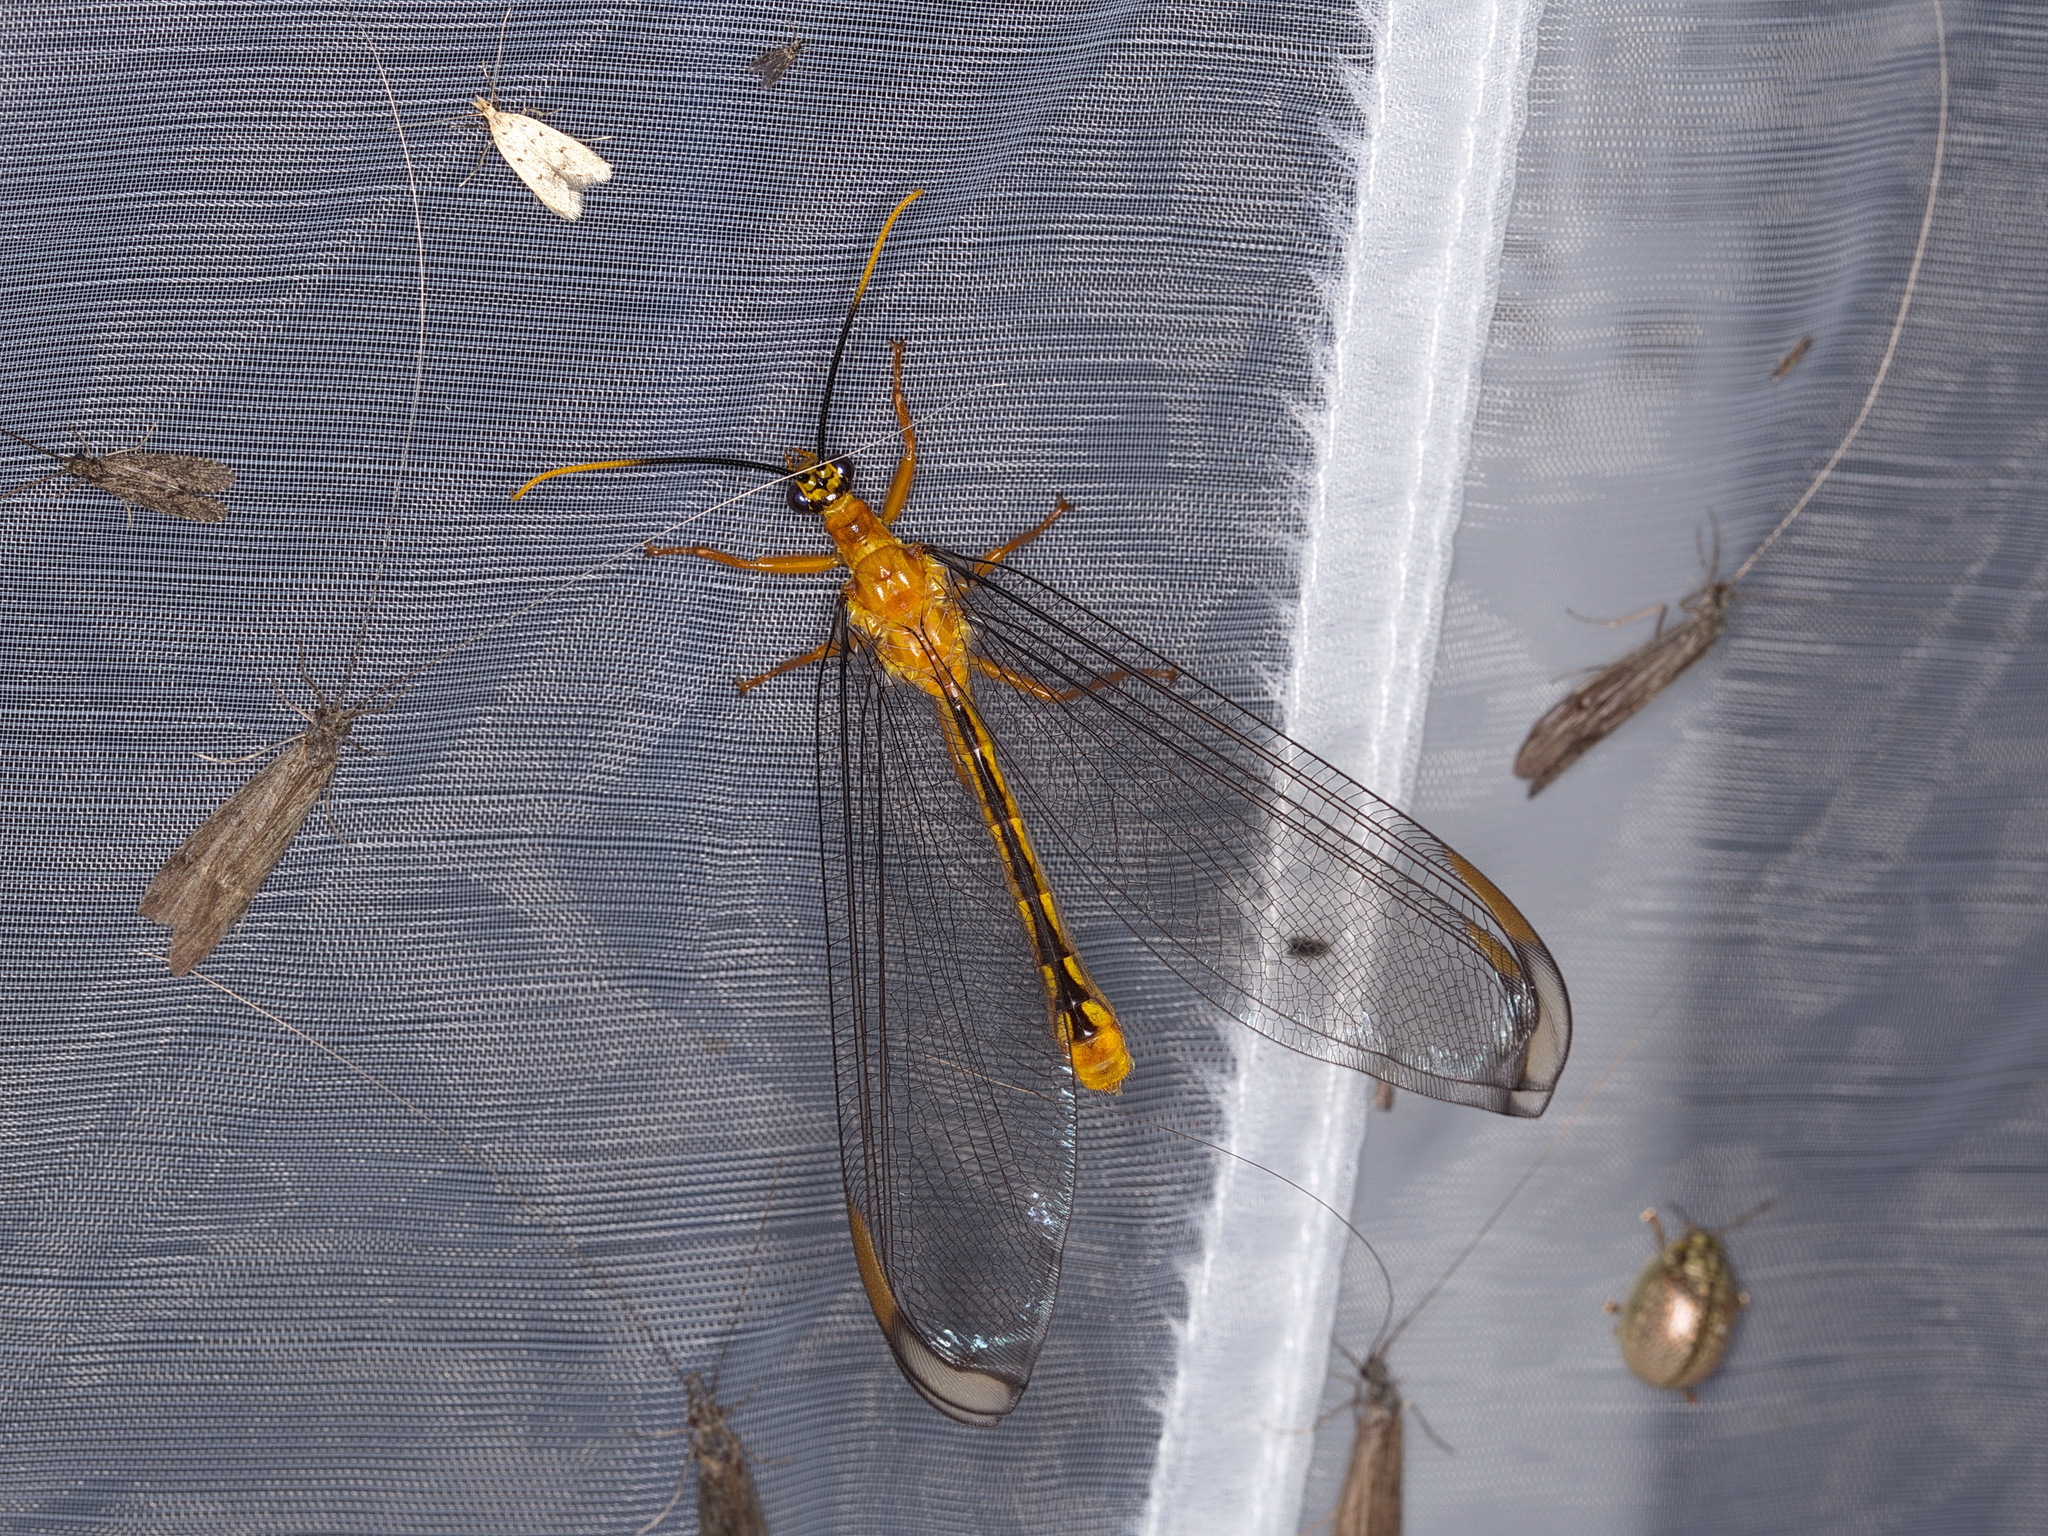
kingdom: Animalia
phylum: Arthropoda
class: Insecta
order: Neuroptera
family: Nymphidae
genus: Nymphes
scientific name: Nymphes myrmeleonoides
